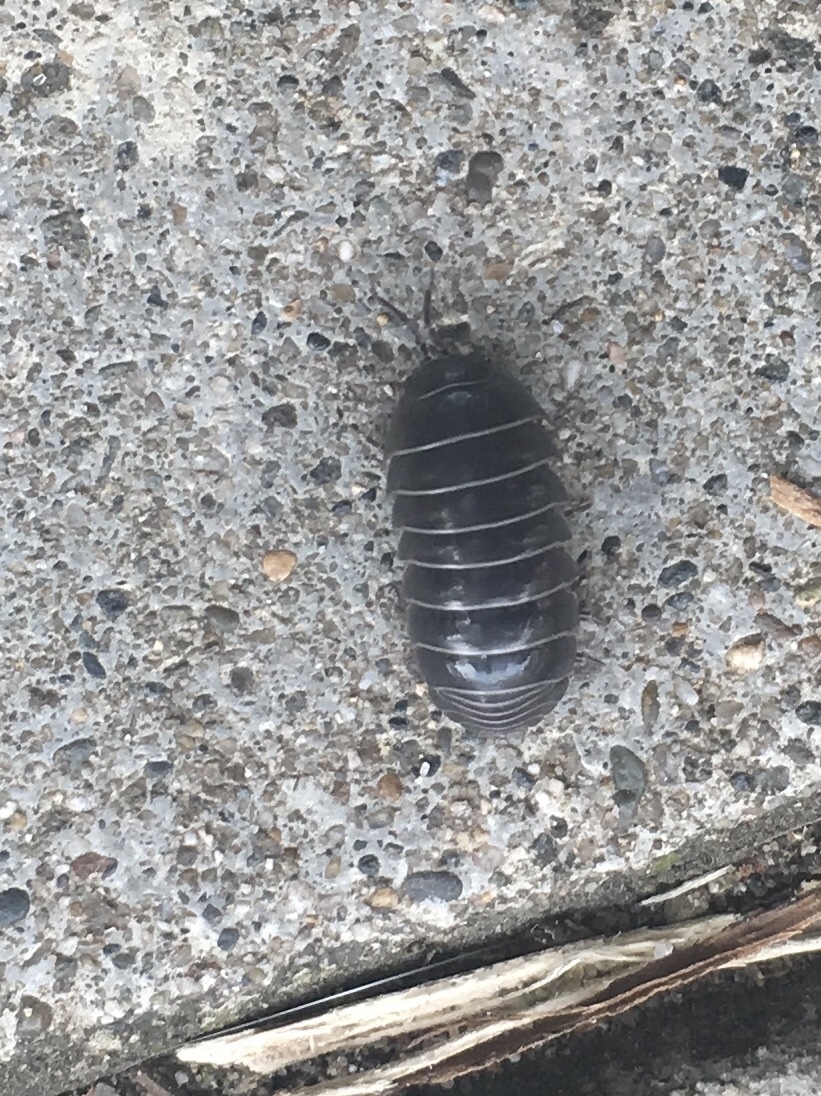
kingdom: Animalia
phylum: Arthropoda
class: Malacostraca
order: Isopoda
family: Armadillidiidae
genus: Armadillidium
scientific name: Armadillidium vulgare
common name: Common pill woodlouse
